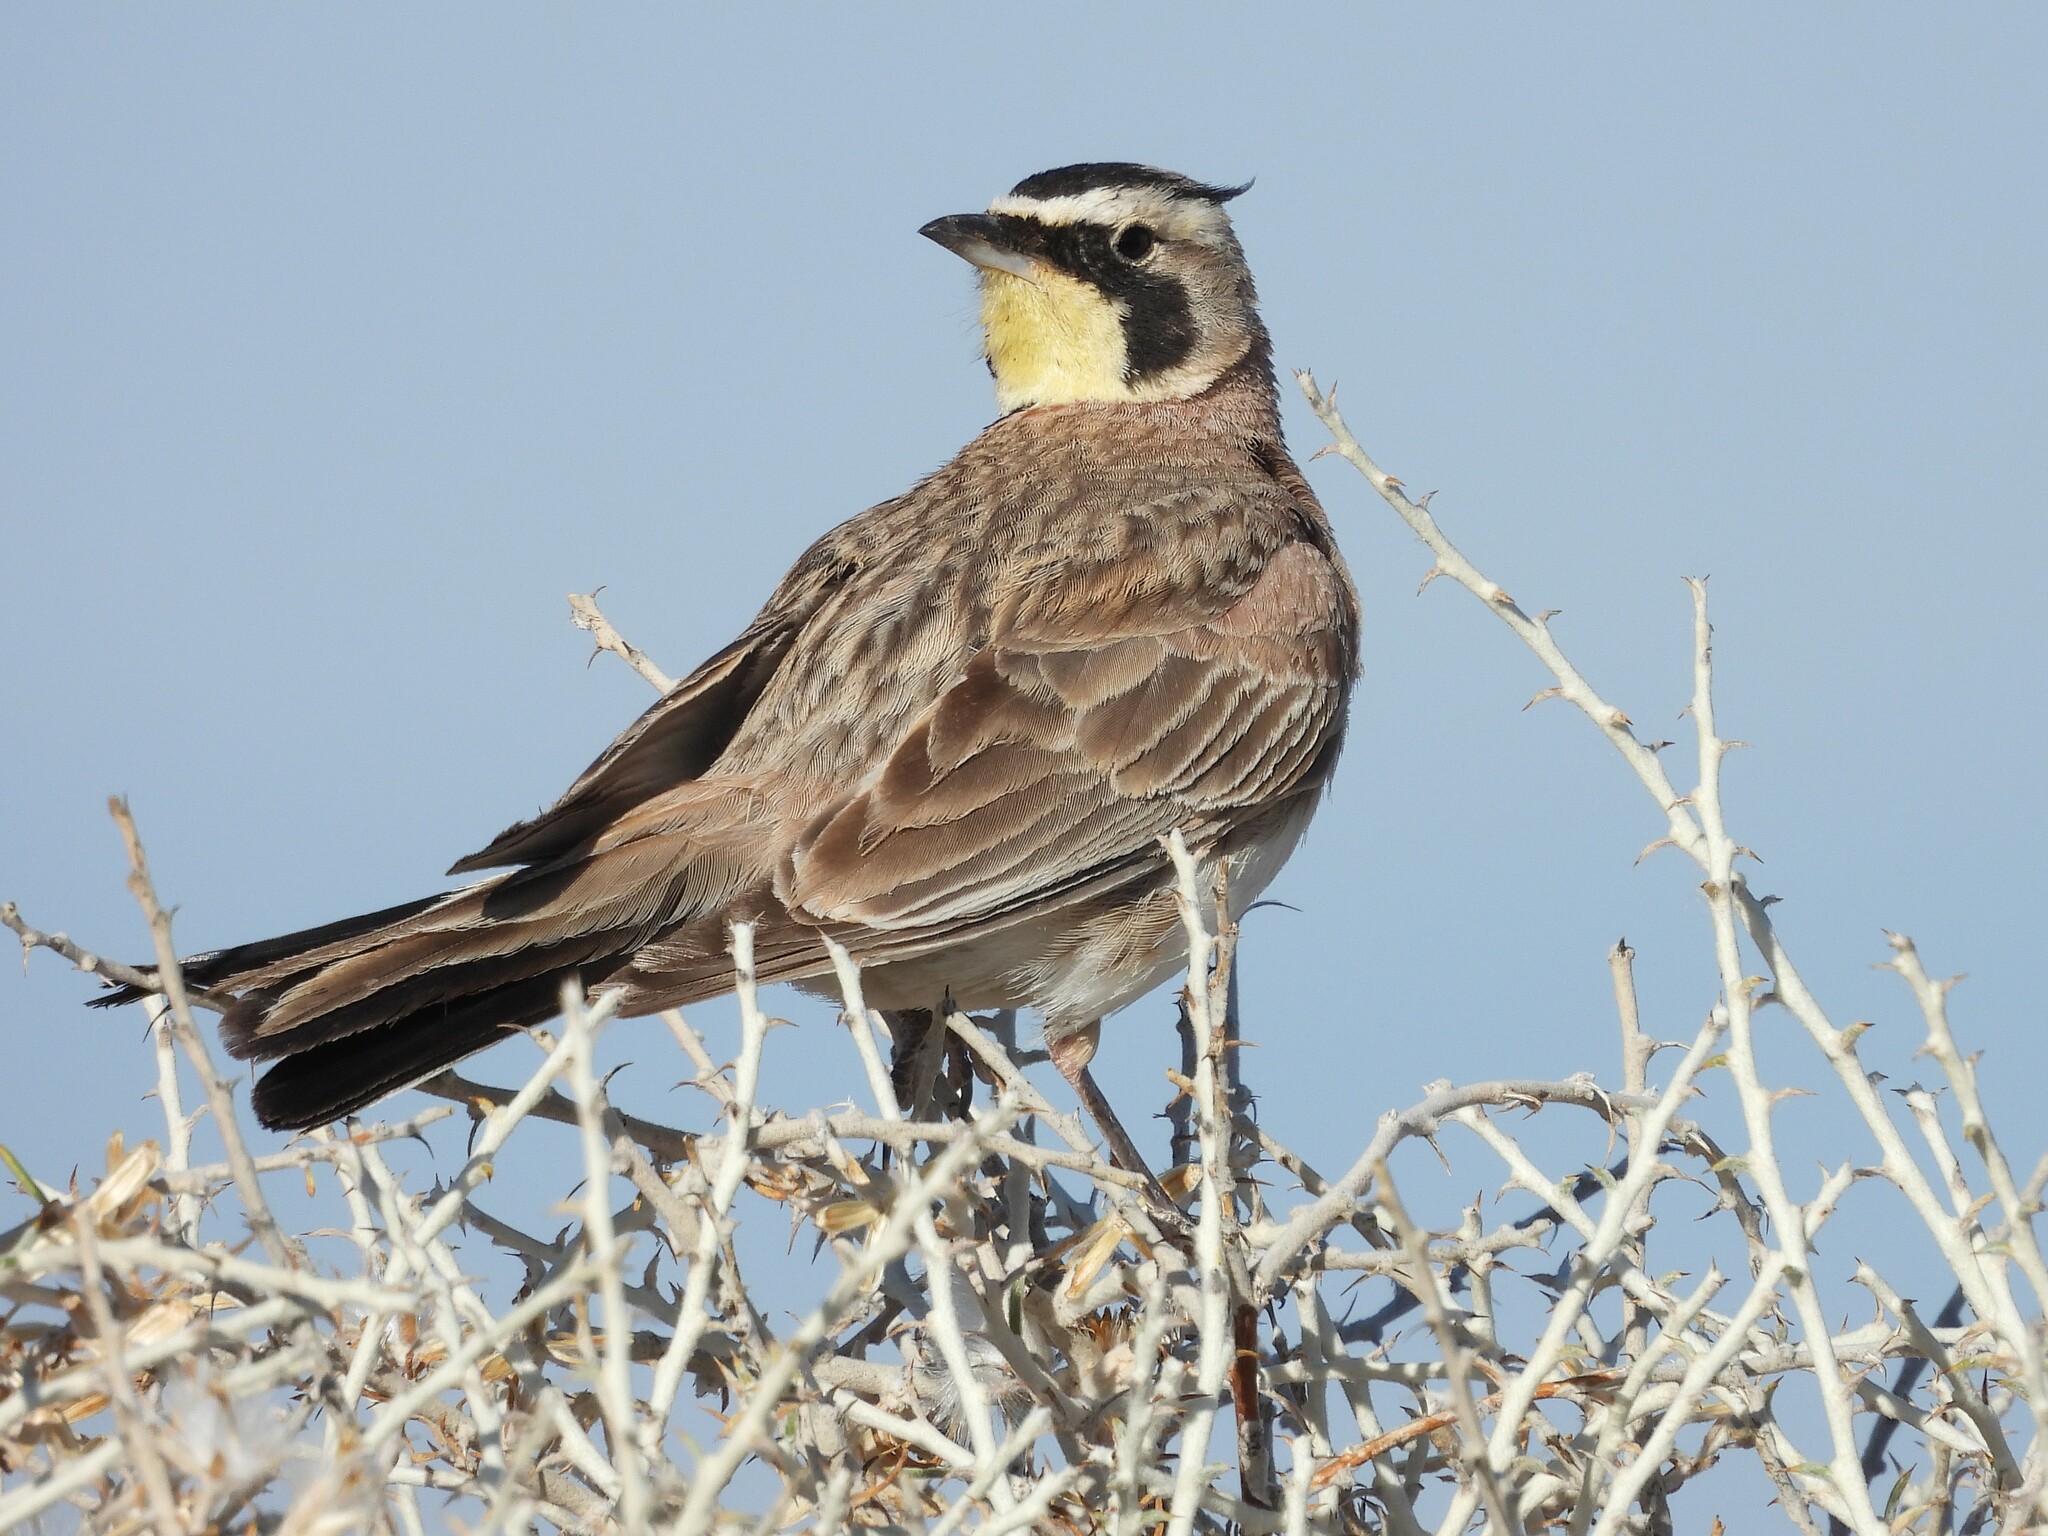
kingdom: Animalia
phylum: Chordata
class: Aves
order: Passeriformes
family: Alaudidae
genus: Eremophila
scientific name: Eremophila alpestris
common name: Horned lark
